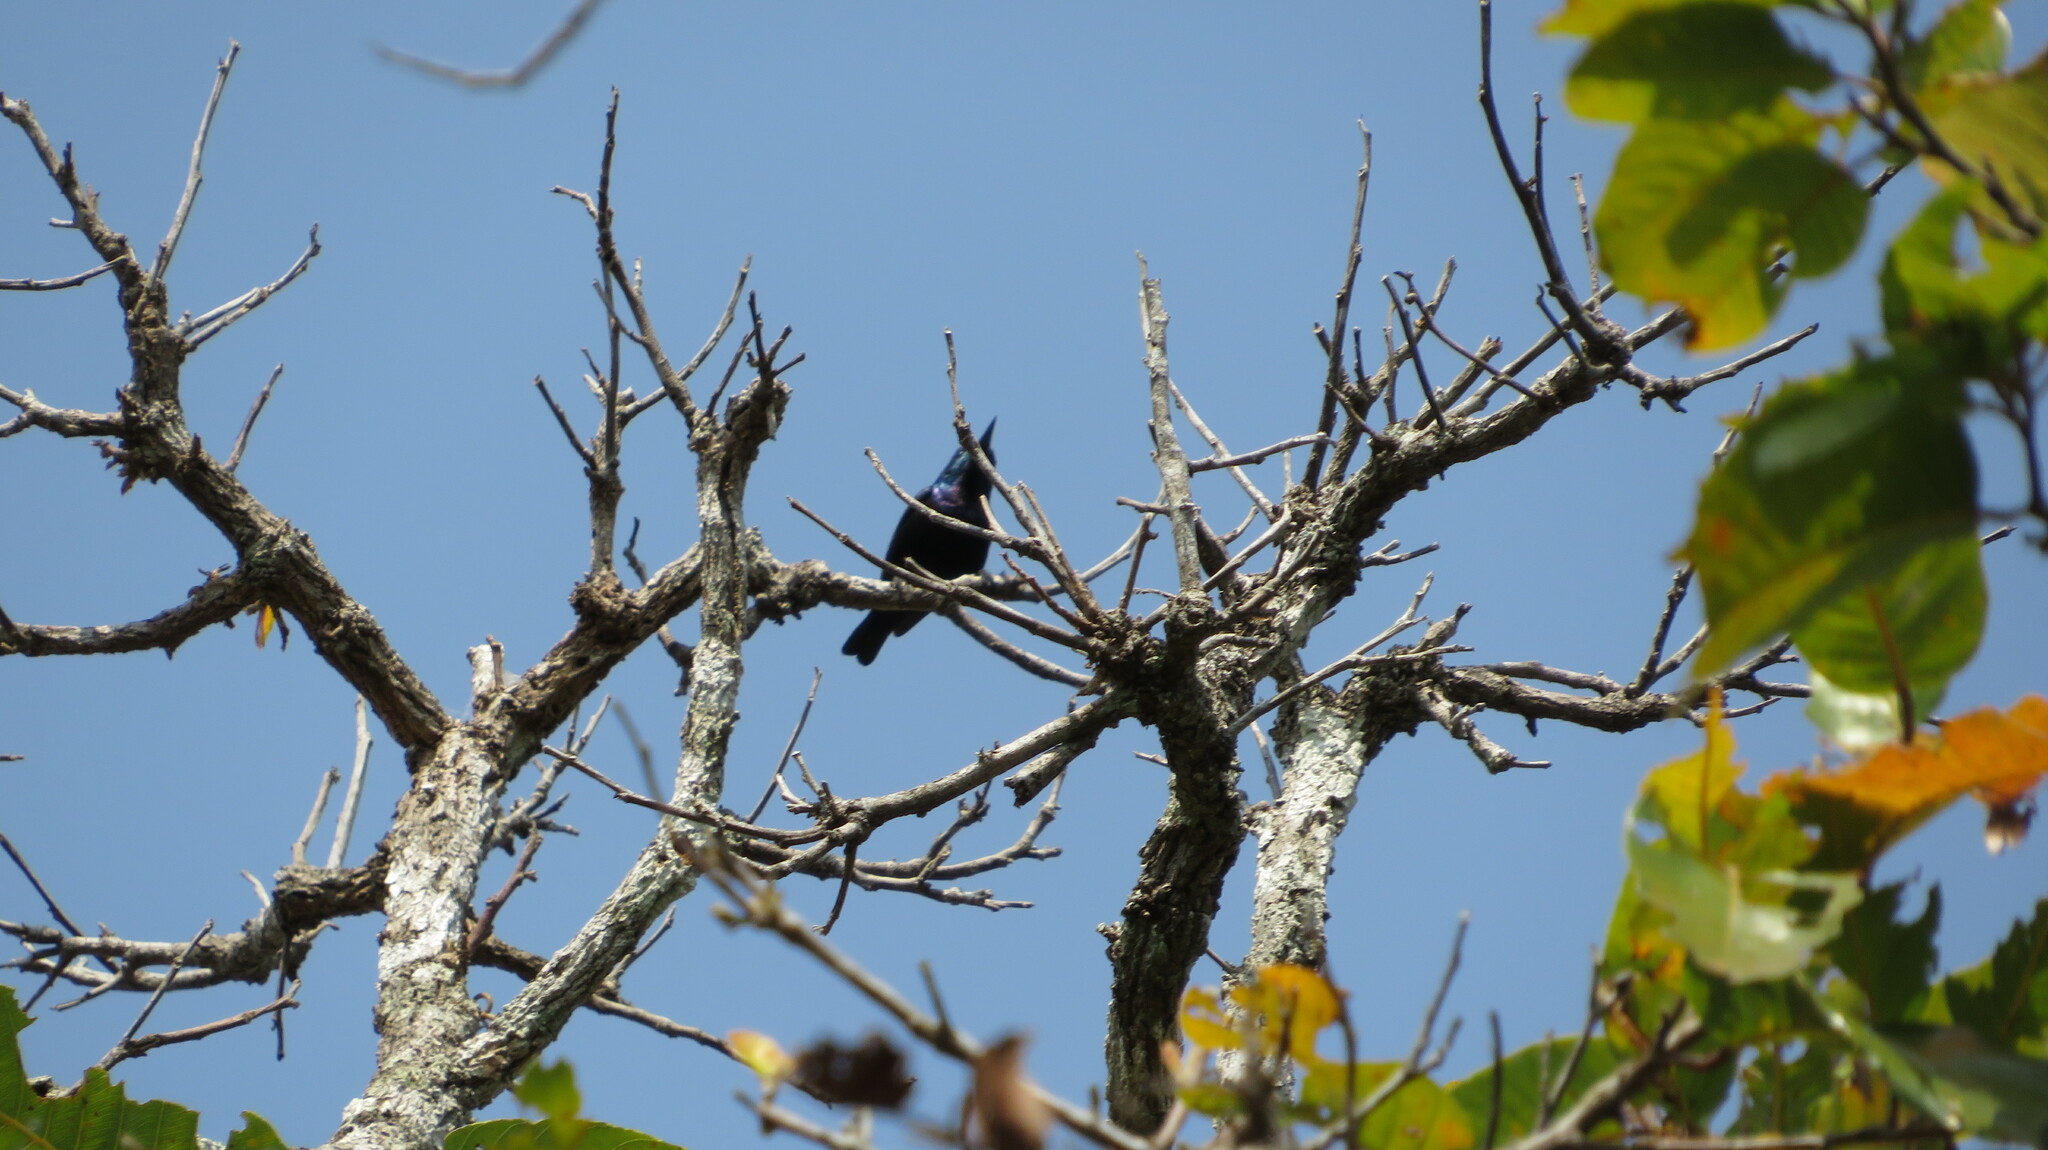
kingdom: Animalia
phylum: Chordata
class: Aves
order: Passeriformes
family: Nectariniidae
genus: Cinnyris
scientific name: Cinnyris asiaticus
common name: Purple sunbird
